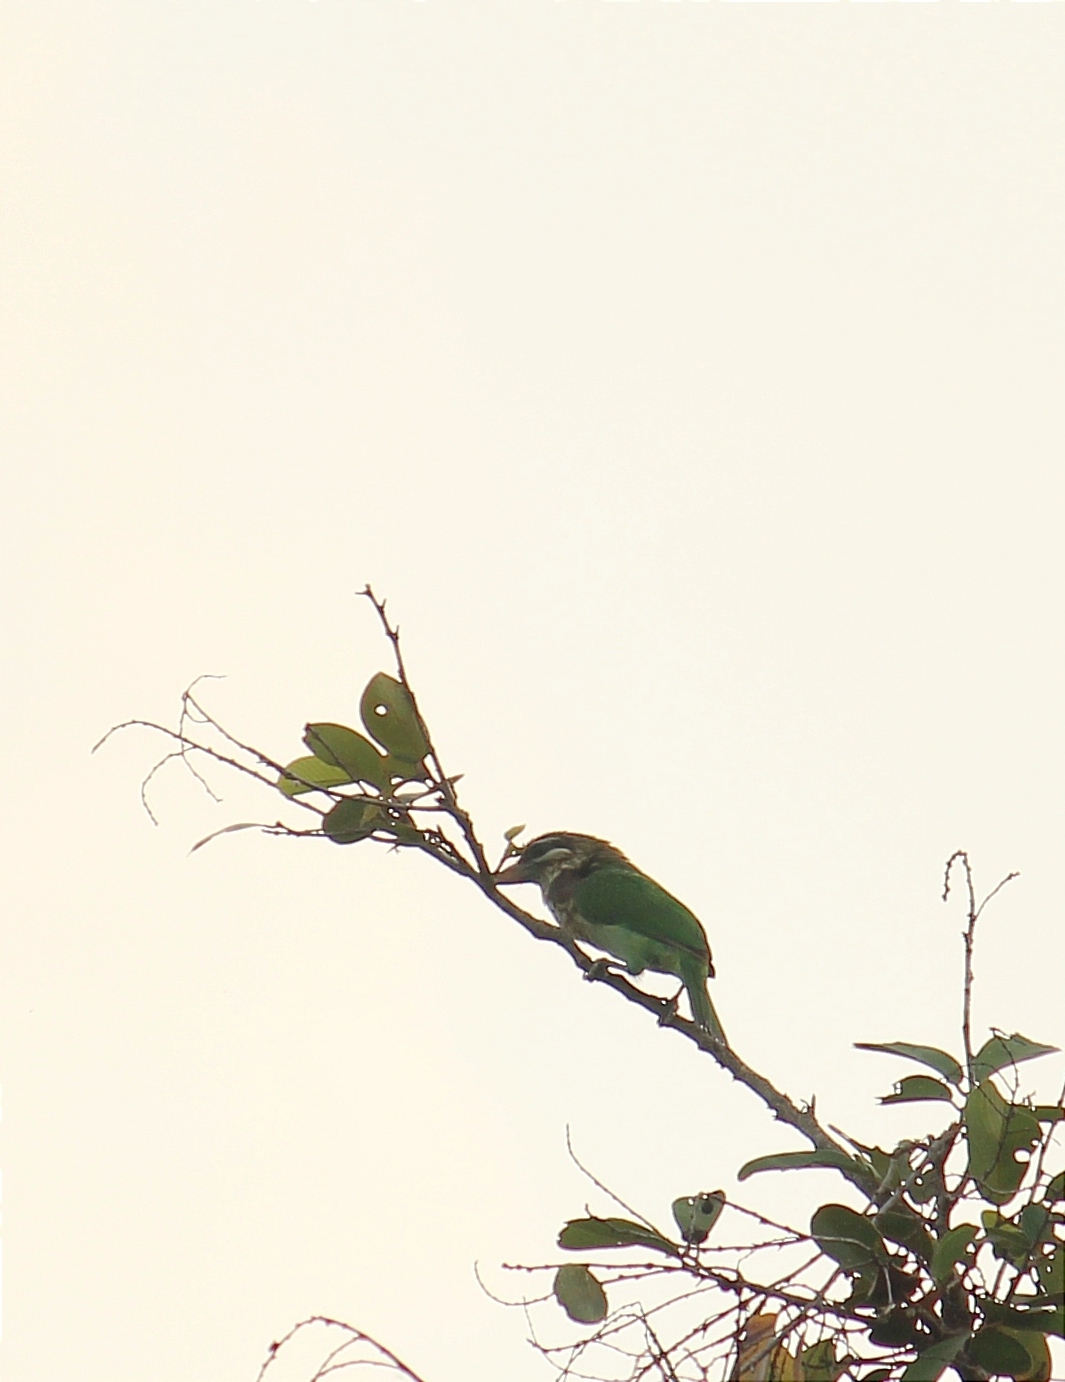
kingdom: Animalia
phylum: Chordata
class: Aves
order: Piciformes
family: Megalaimidae
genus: Psilopogon
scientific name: Psilopogon viridis
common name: White-cheeked barbet
